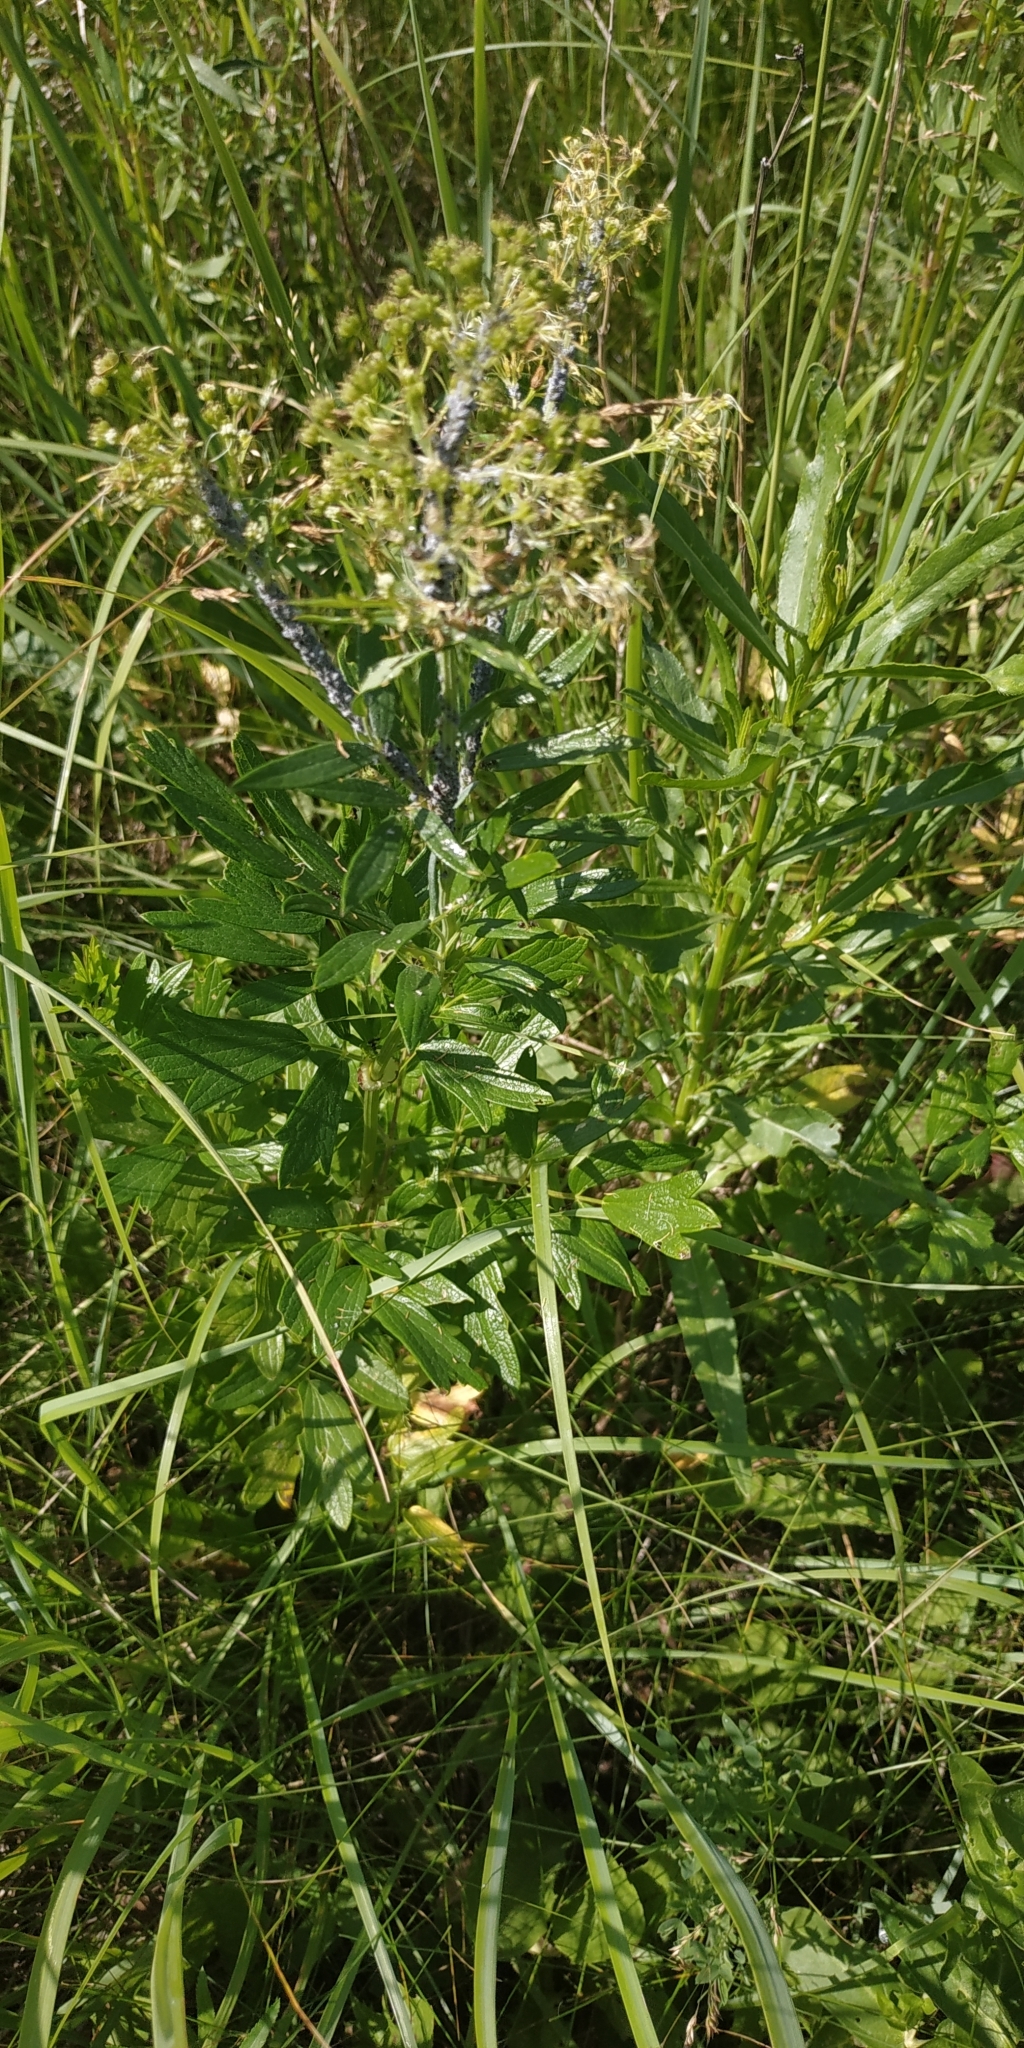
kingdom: Plantae
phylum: Tracheophyta
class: Magnoliopsida
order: Ranunculales
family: Ranunculaceae
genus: Thalictrum
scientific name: Thalictrum flavum
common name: Common meadow-rue
